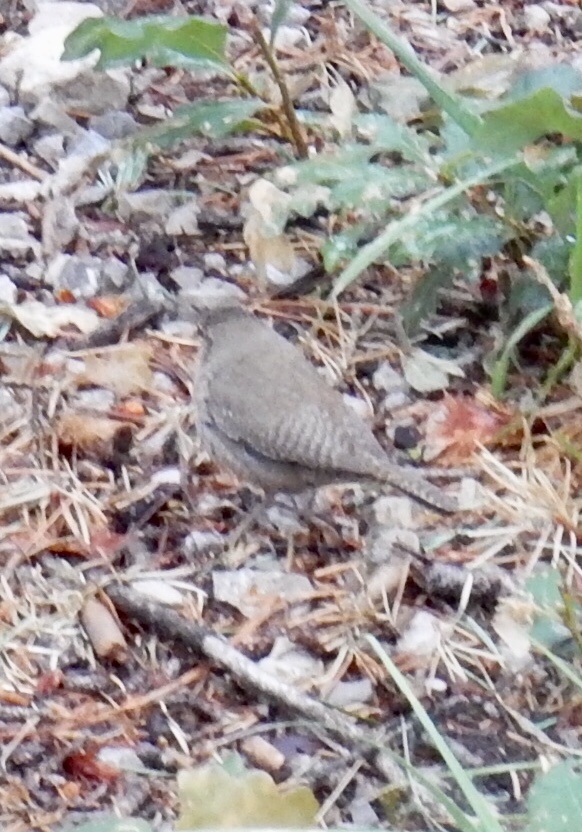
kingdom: Animalia
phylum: Chordata
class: Aves
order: Passeriformes
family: Troglodytidae
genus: Troglodytes
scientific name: Troglodytes aedon
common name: House wren
